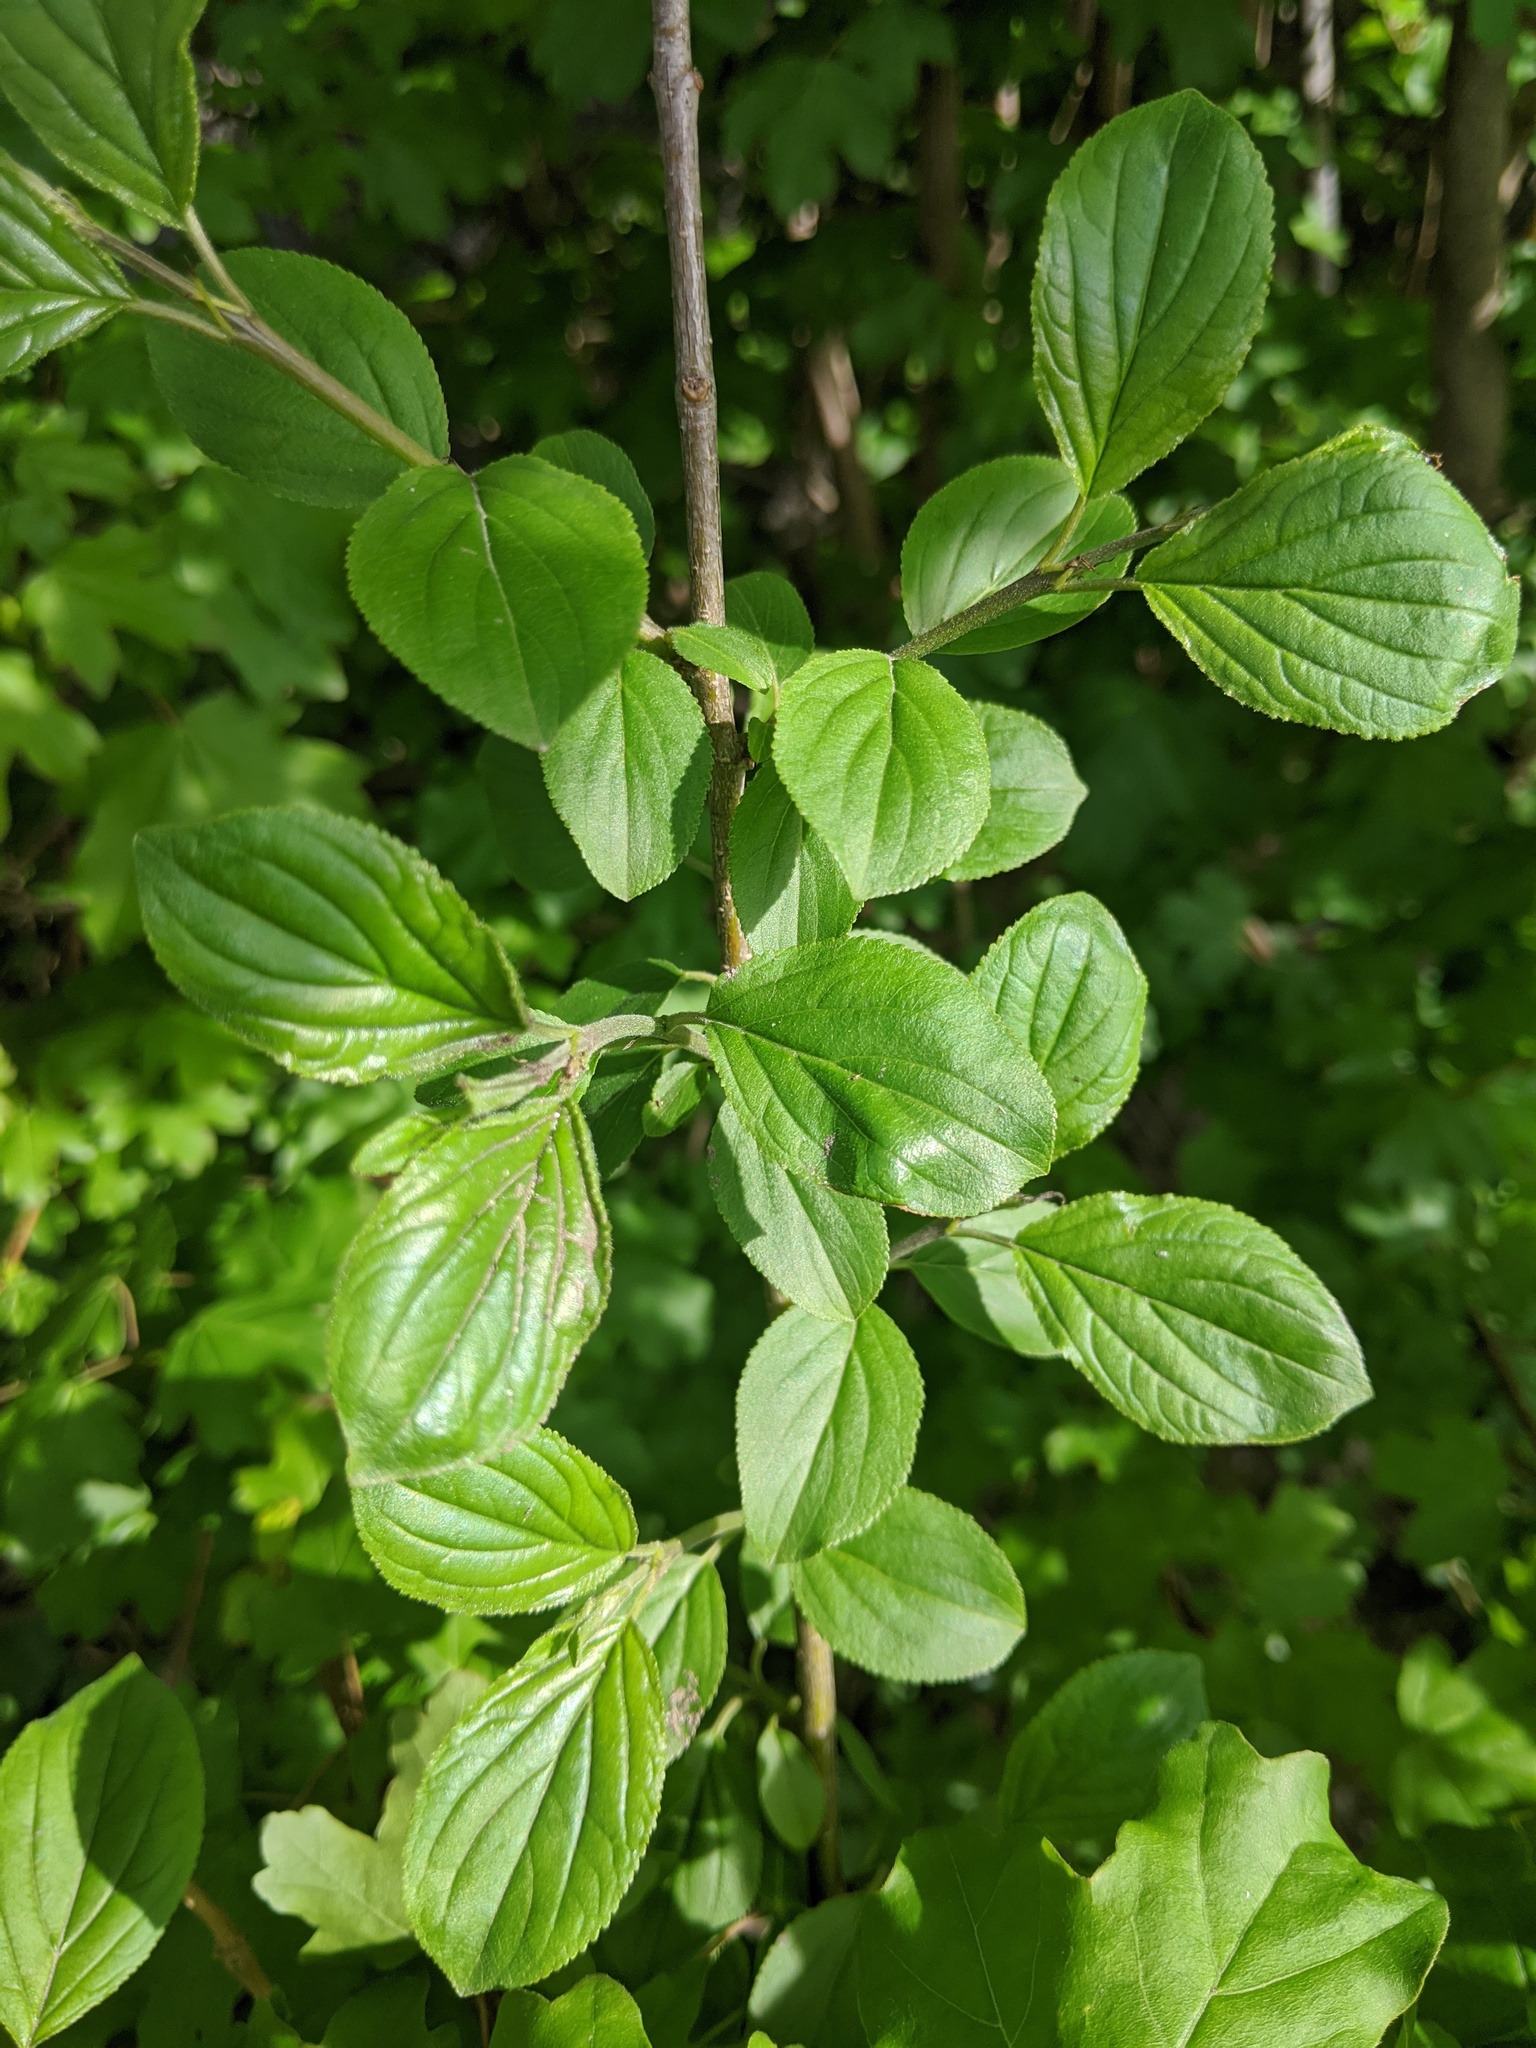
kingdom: Plantae
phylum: Tracheophyta
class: Magnoliopsida
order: Rosales
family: Rhamnaceae
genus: Rhamnus
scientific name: Rhamnus cathartica
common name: Common buckthorn
